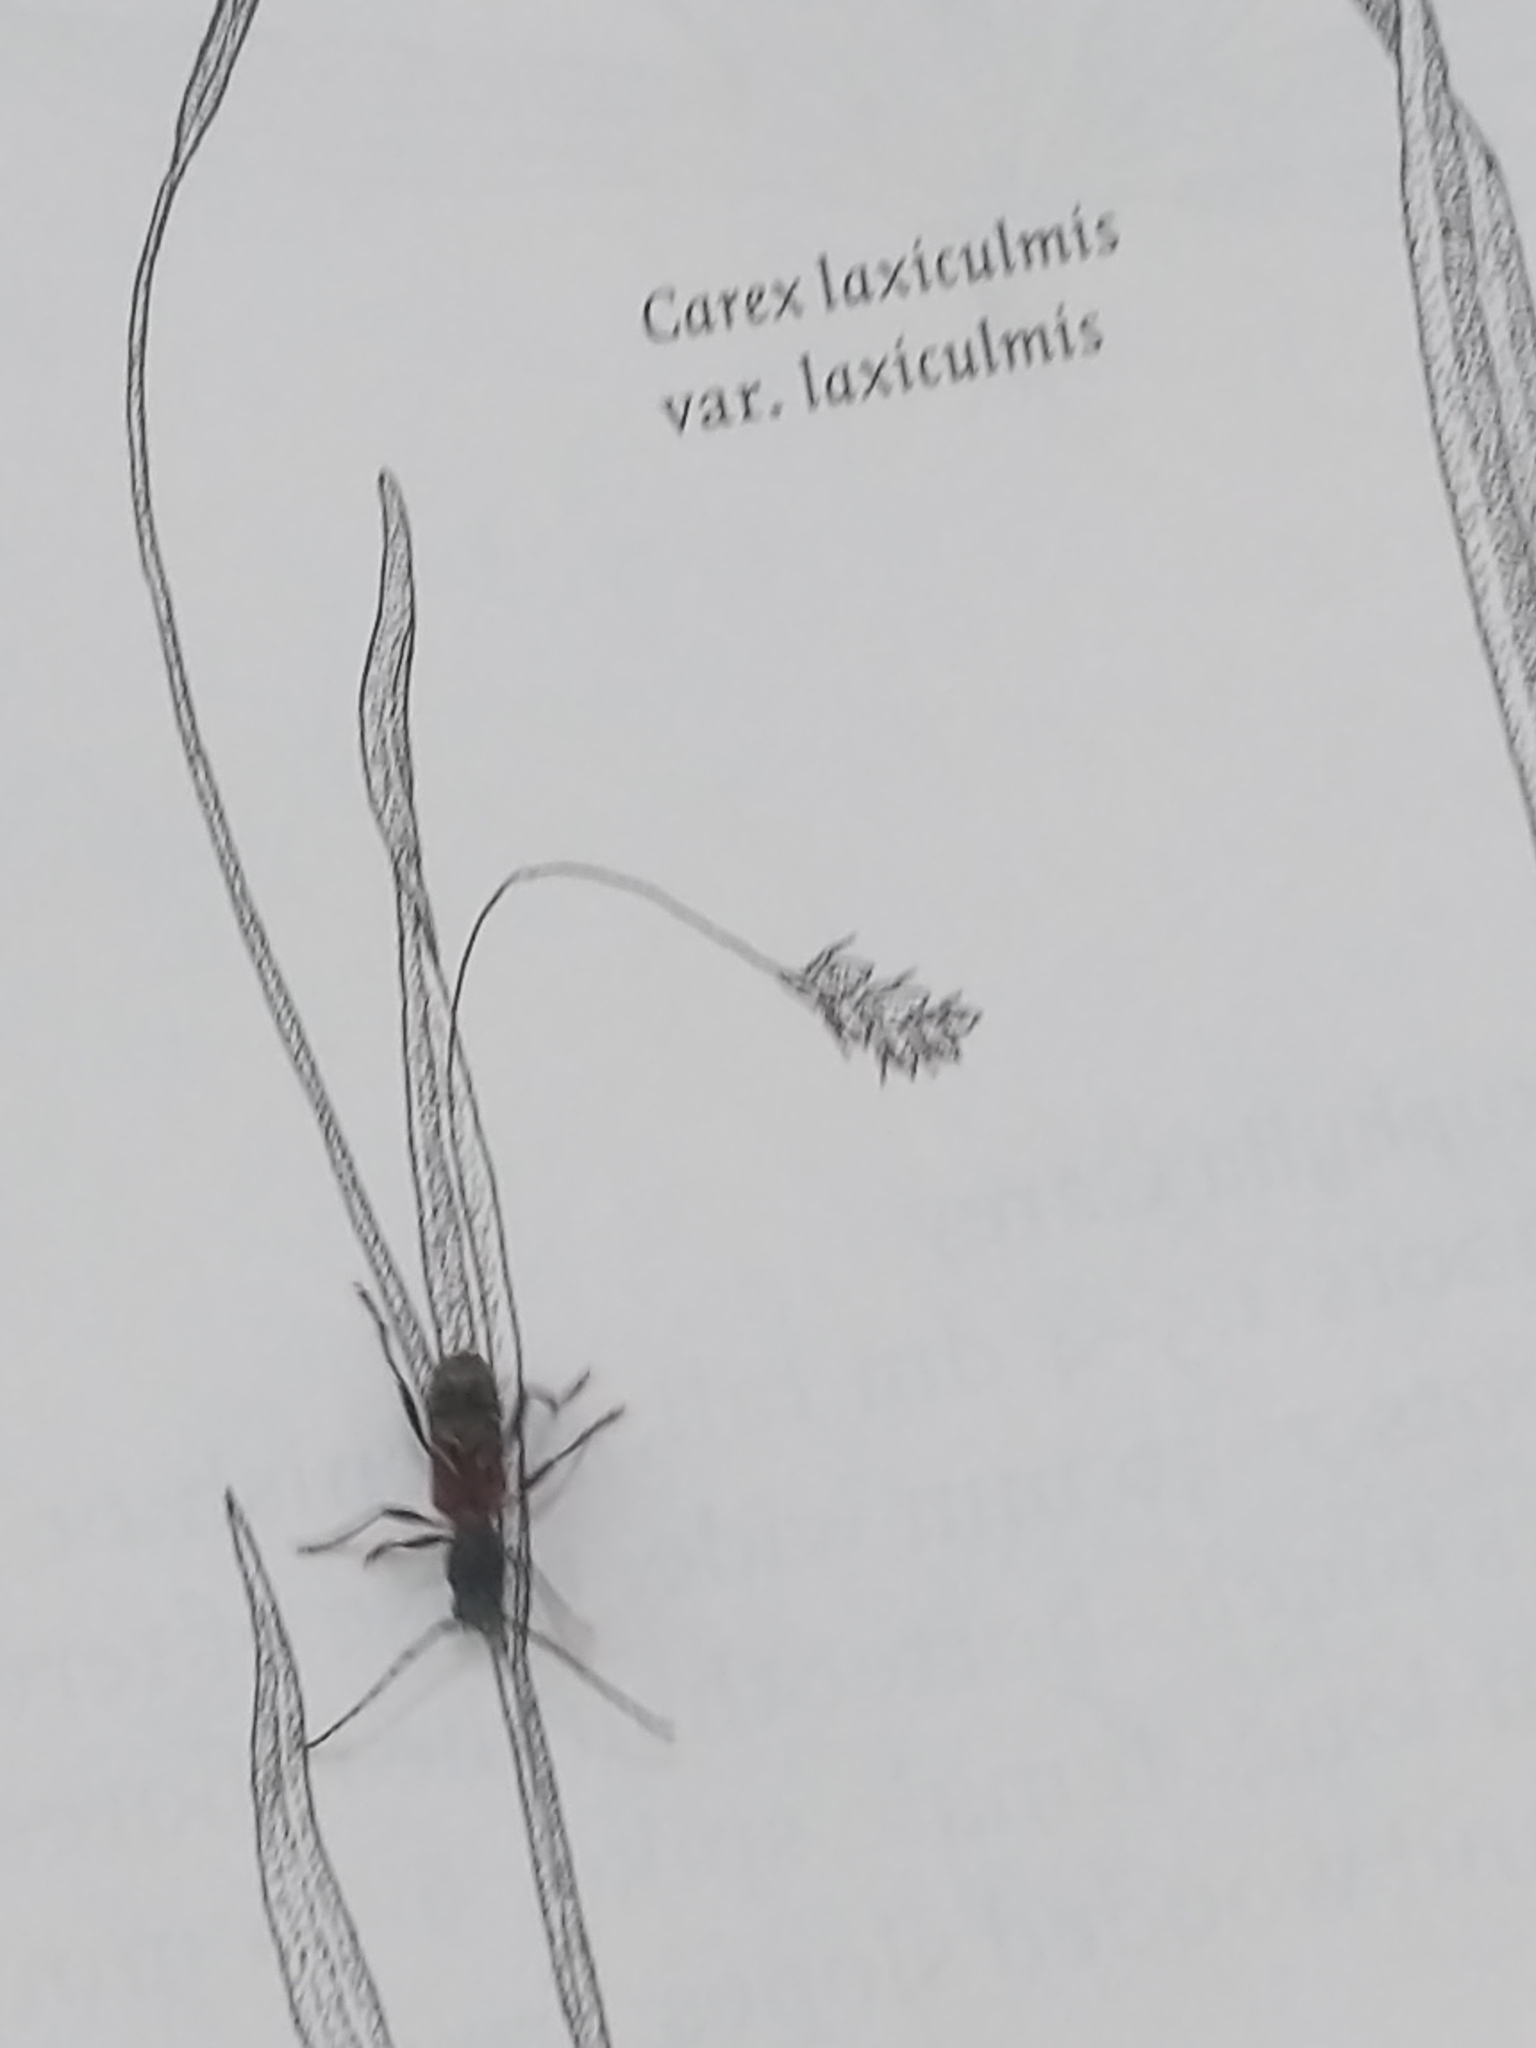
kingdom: Animalia
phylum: Arthropoda
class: Insecta
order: Coleoptera
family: Cerambycidae
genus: Cyrtophorus
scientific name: Cyrtophorus verrucosus
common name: Ant-like longhorn beetle
